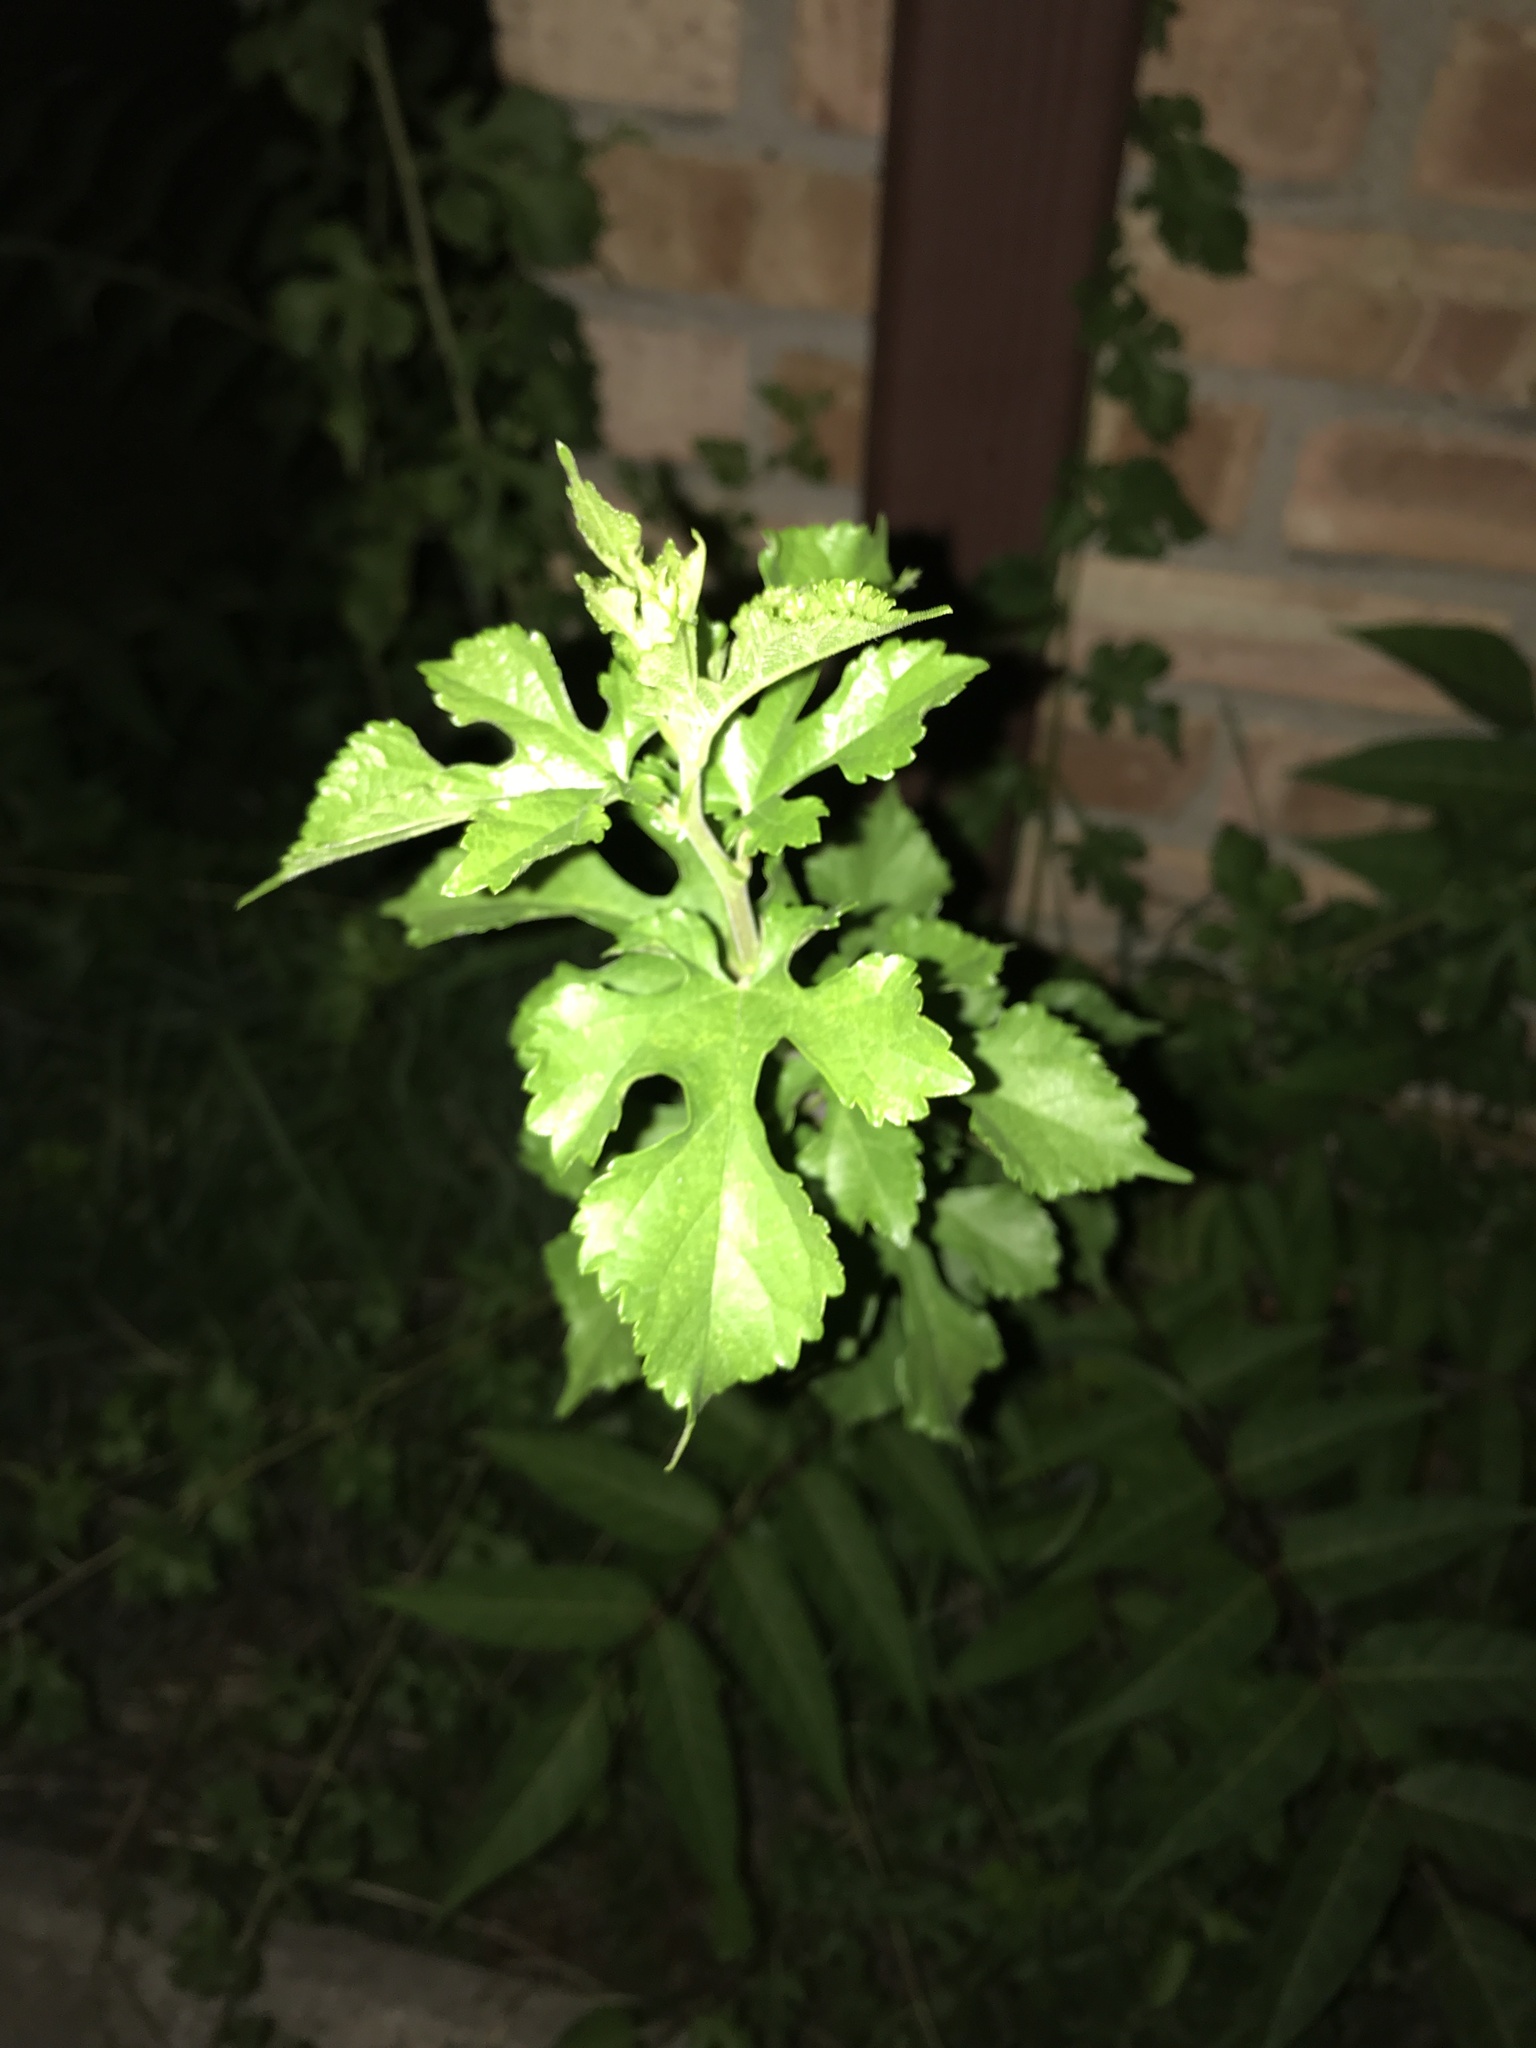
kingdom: Plantae
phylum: Tracheophyta
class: Magnoliopsida
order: Rosales
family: Moraceae
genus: Morus
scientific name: Morus alba
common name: White mulberry
